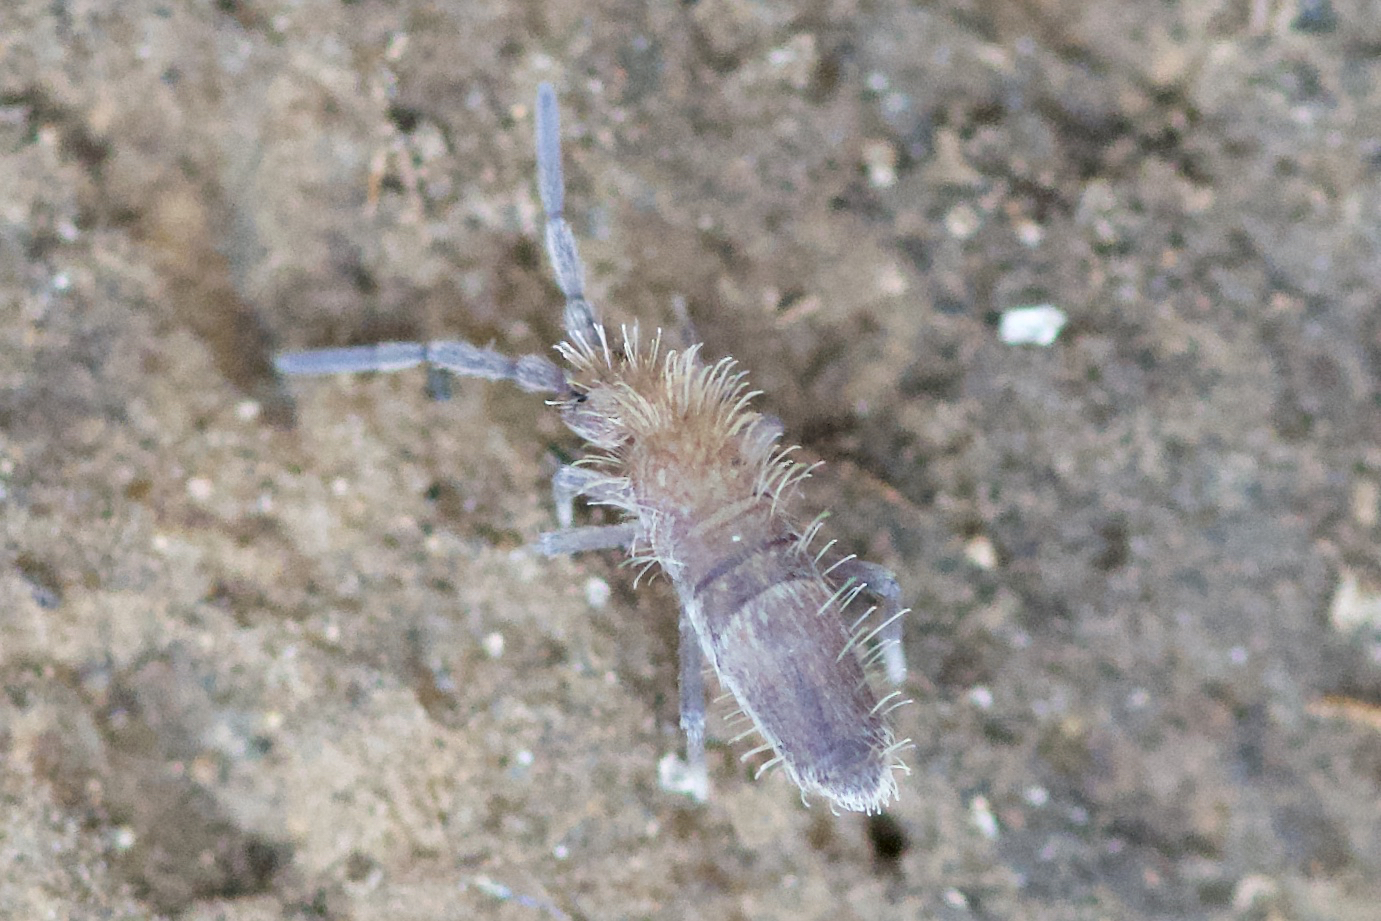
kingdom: Animalia
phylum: Arthropoda
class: Collembola
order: Entomobryomorpha
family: Entomobryidae
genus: Entomobrya
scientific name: Entomobrya griseoolivata
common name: Springtail
